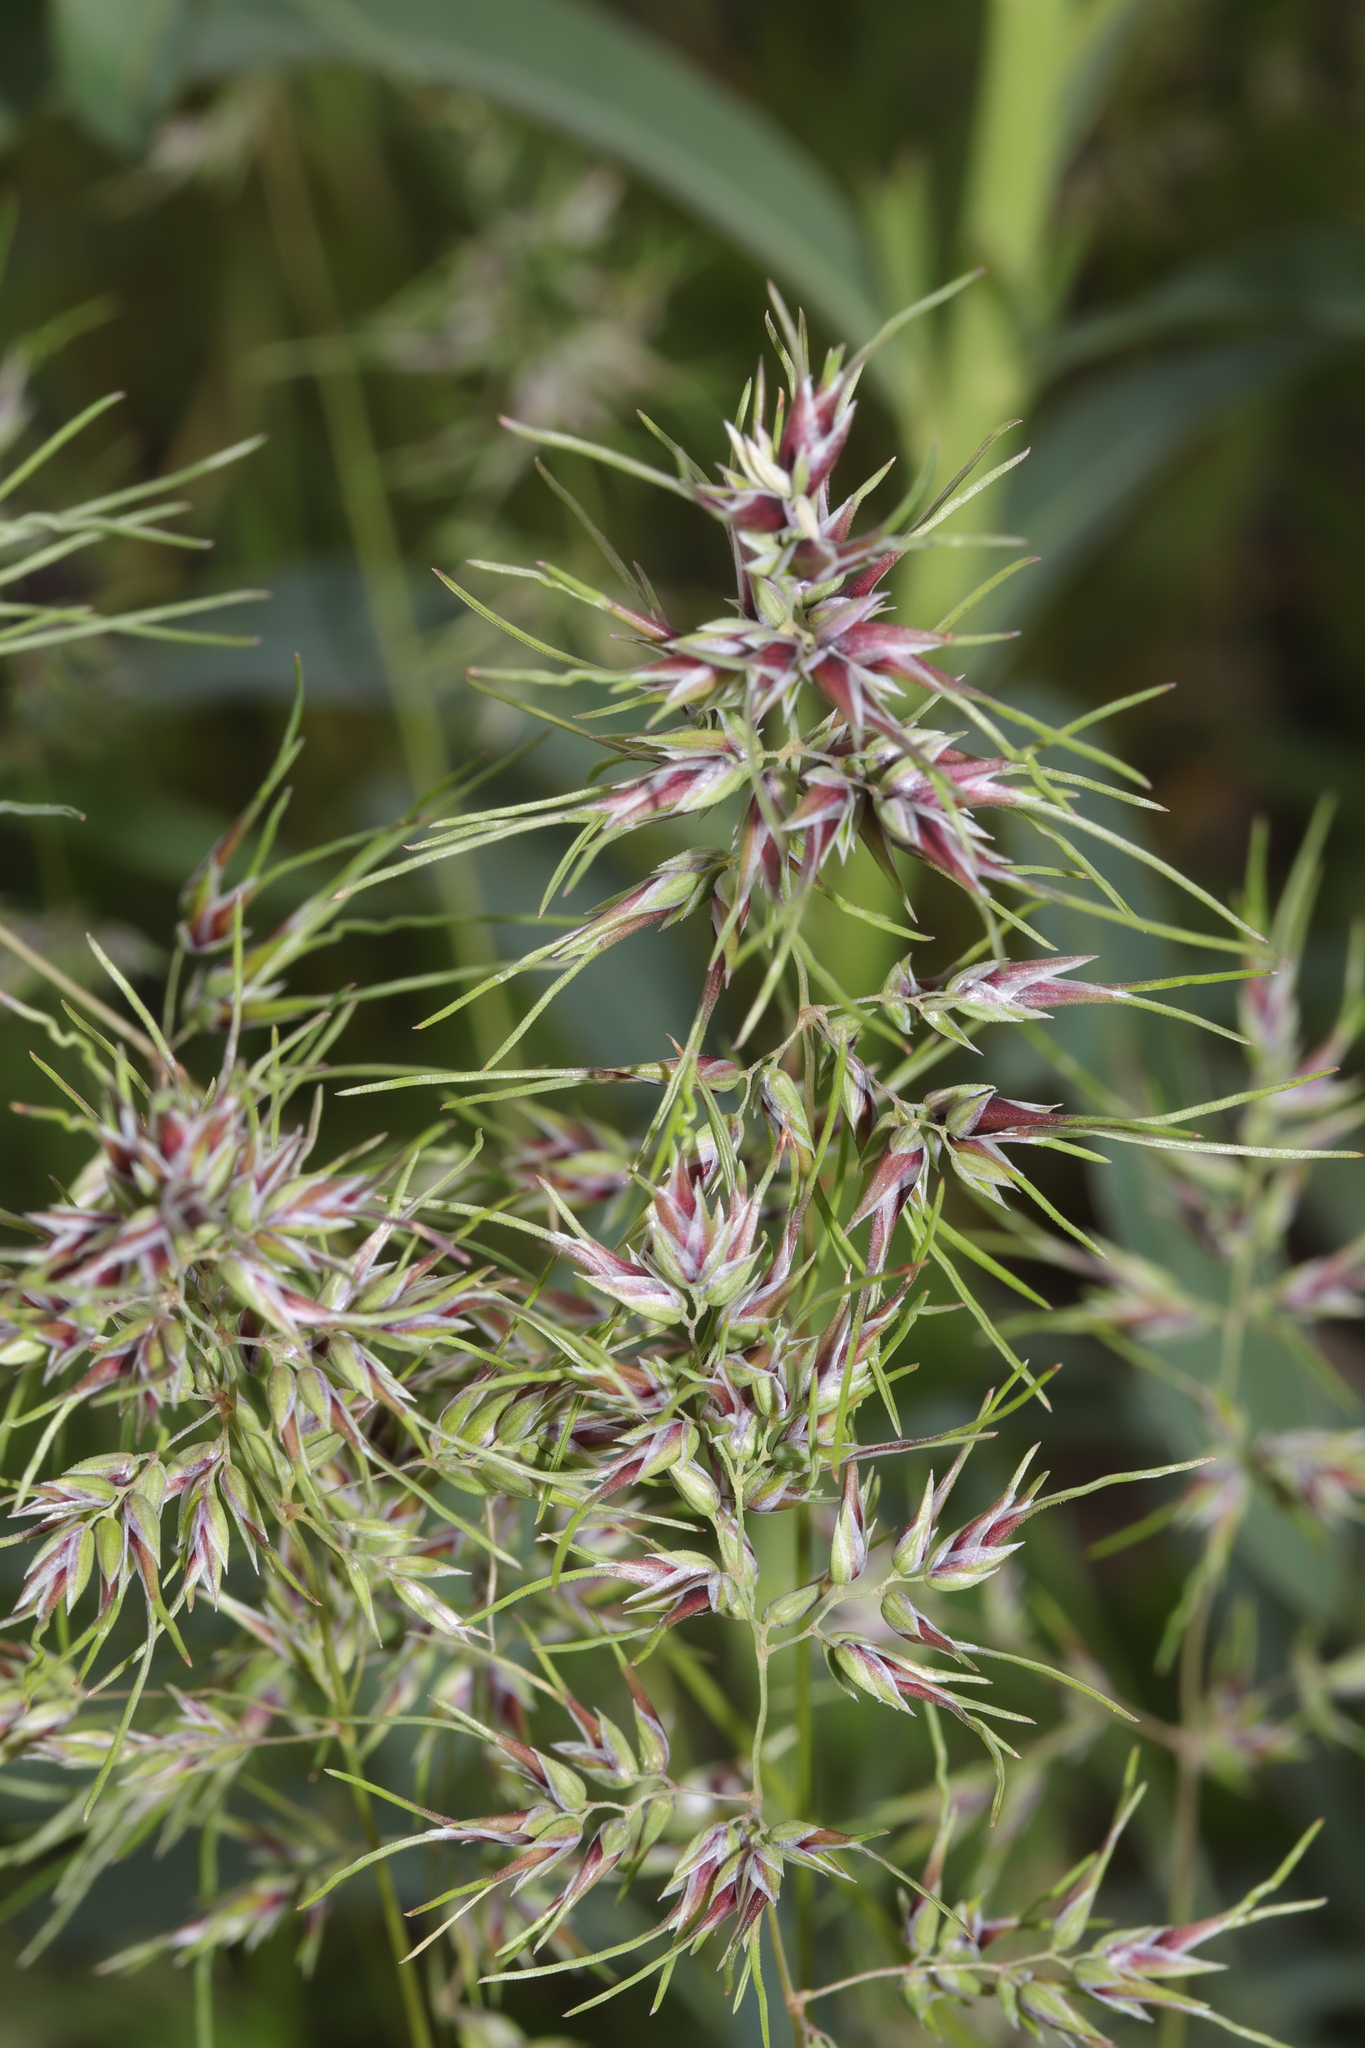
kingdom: Plantae
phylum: Tracheophyta
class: Liliopsida
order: Poales
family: Poaceae
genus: Poa
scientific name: Poa bulbosa
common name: Bulbous bluegrass
